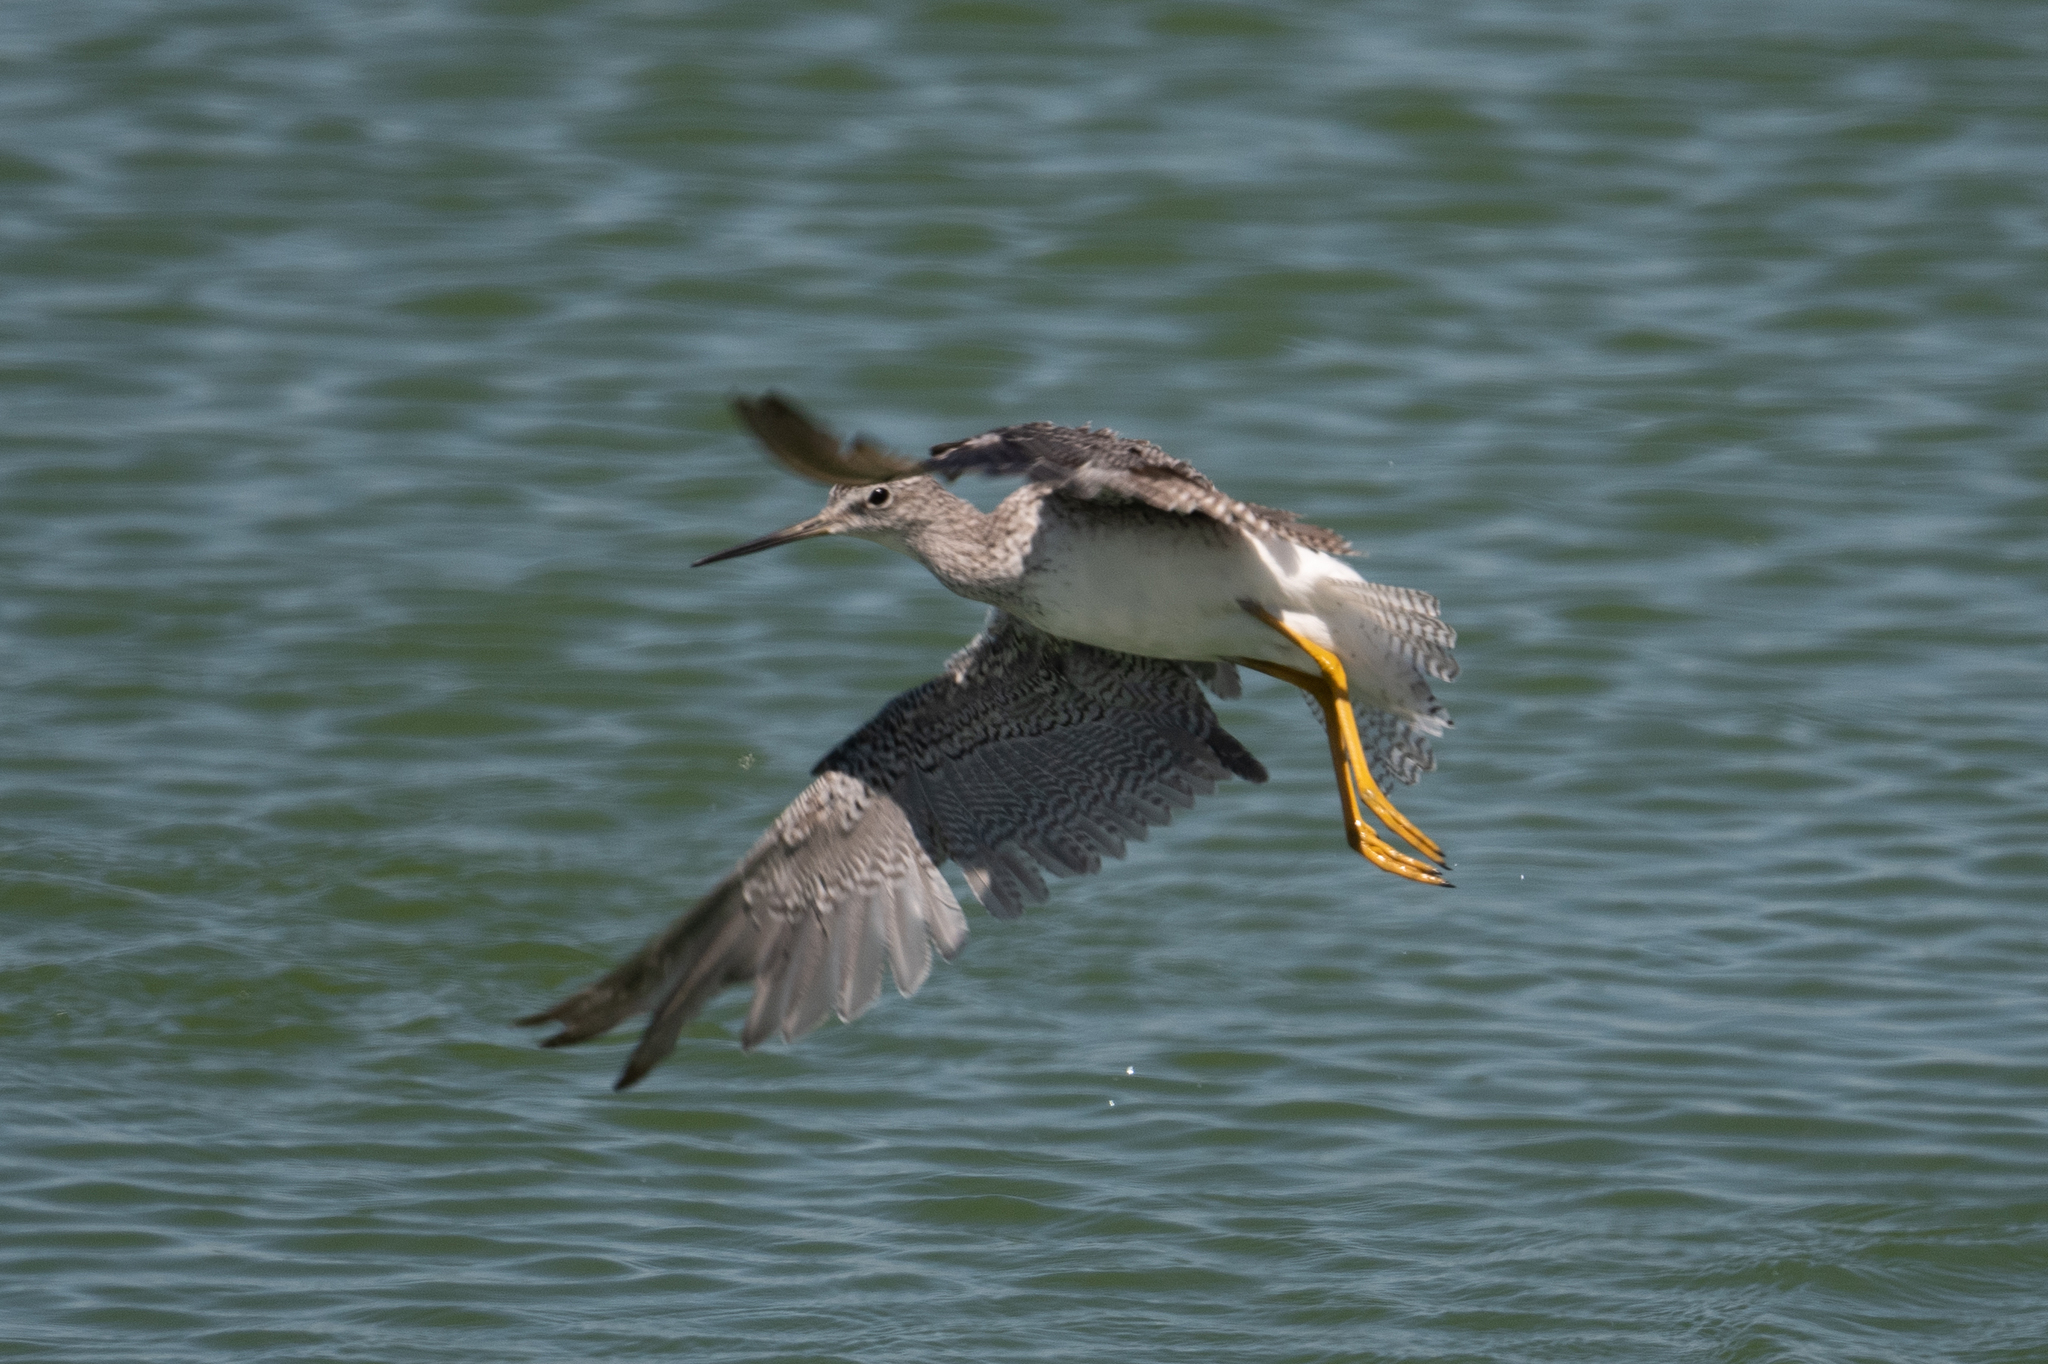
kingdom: Animalia
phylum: Chordata
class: Aves
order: Charadriiformes
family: Scolopacidae
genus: Tringa
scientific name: Tringa melanoleuca
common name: Greater yellowlegs
